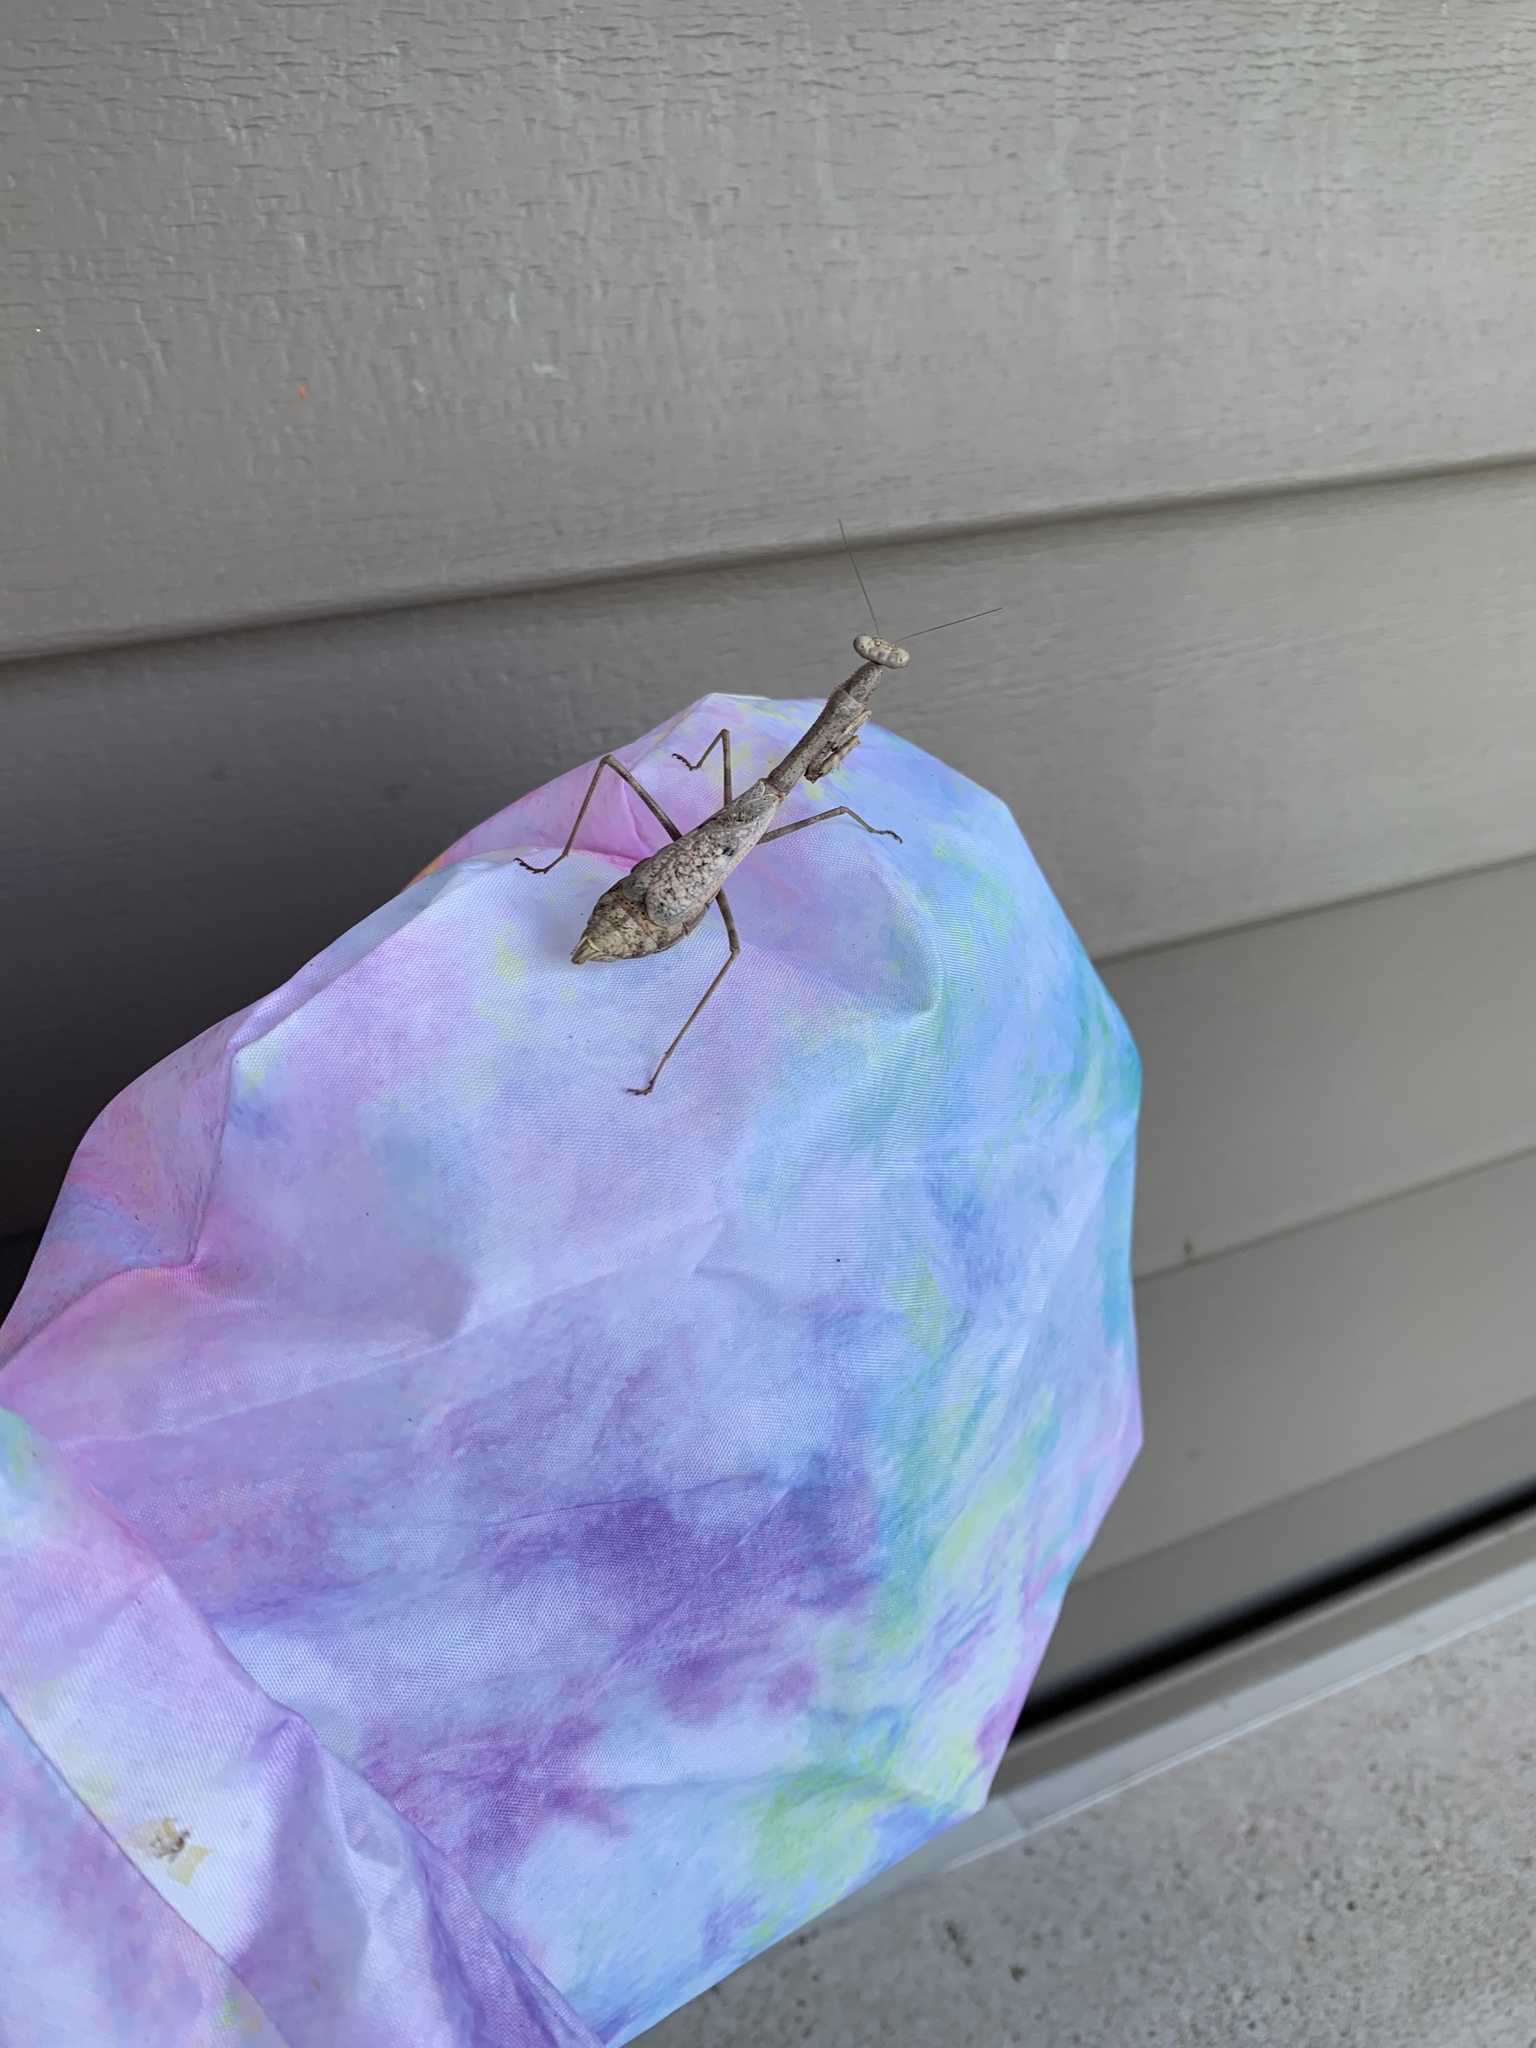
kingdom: Animalia
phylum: Arthropoda
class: Insecta
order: Mantodea
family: Mantidae
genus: Stagmomantis
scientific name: Stagmomantis carolina
